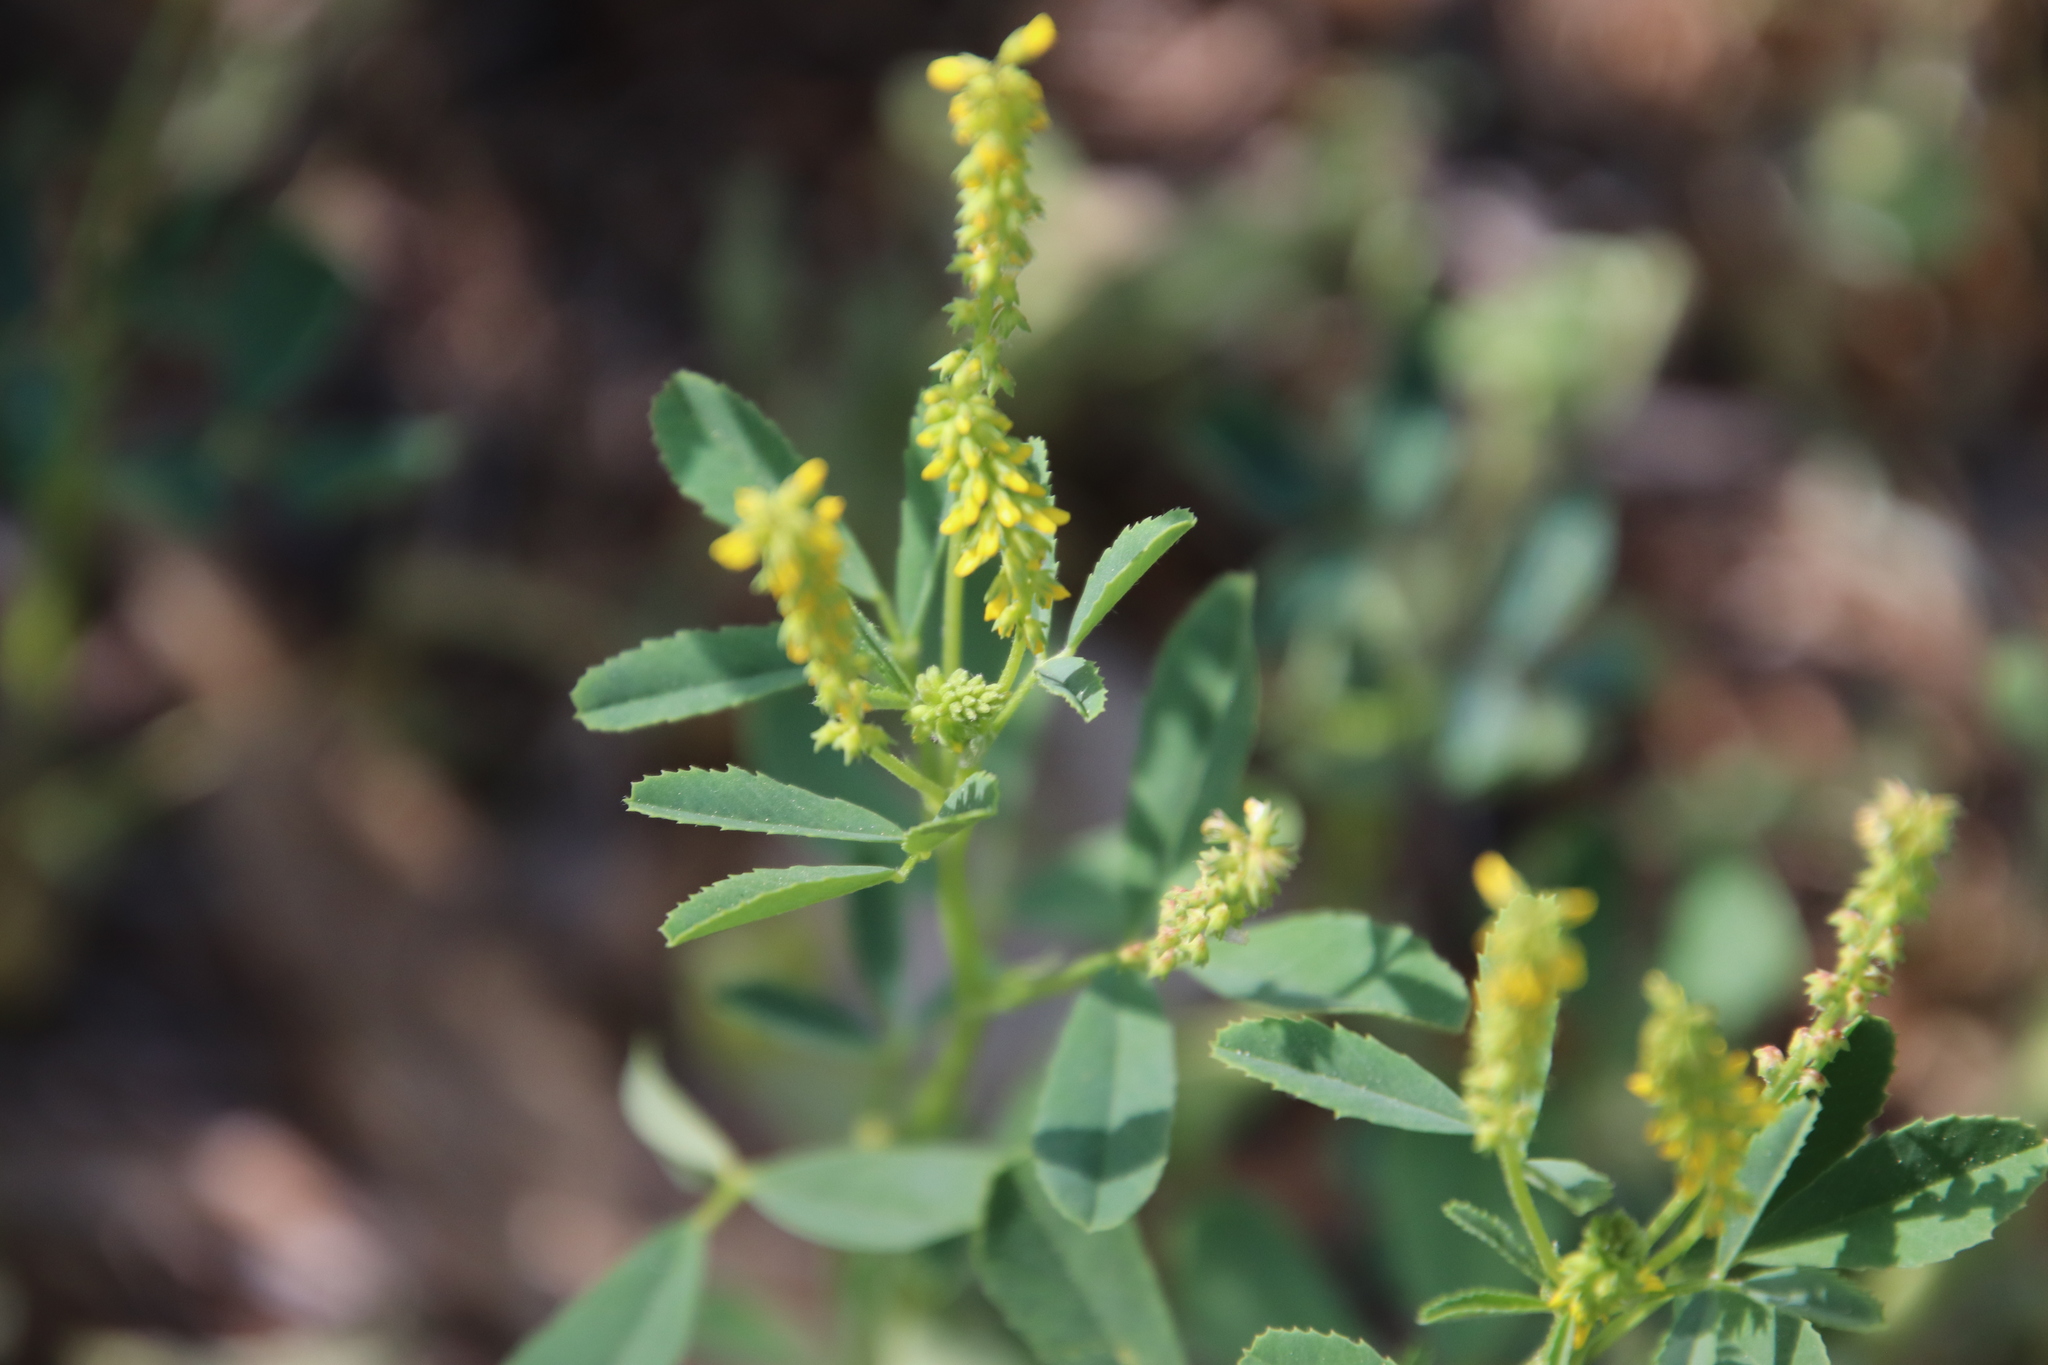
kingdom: Plantae
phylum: Tracheophyta
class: Magnoliopsida
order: Fabales
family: Fabaceae
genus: Melilotus
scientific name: Melilotus indicus
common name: Small melilot
